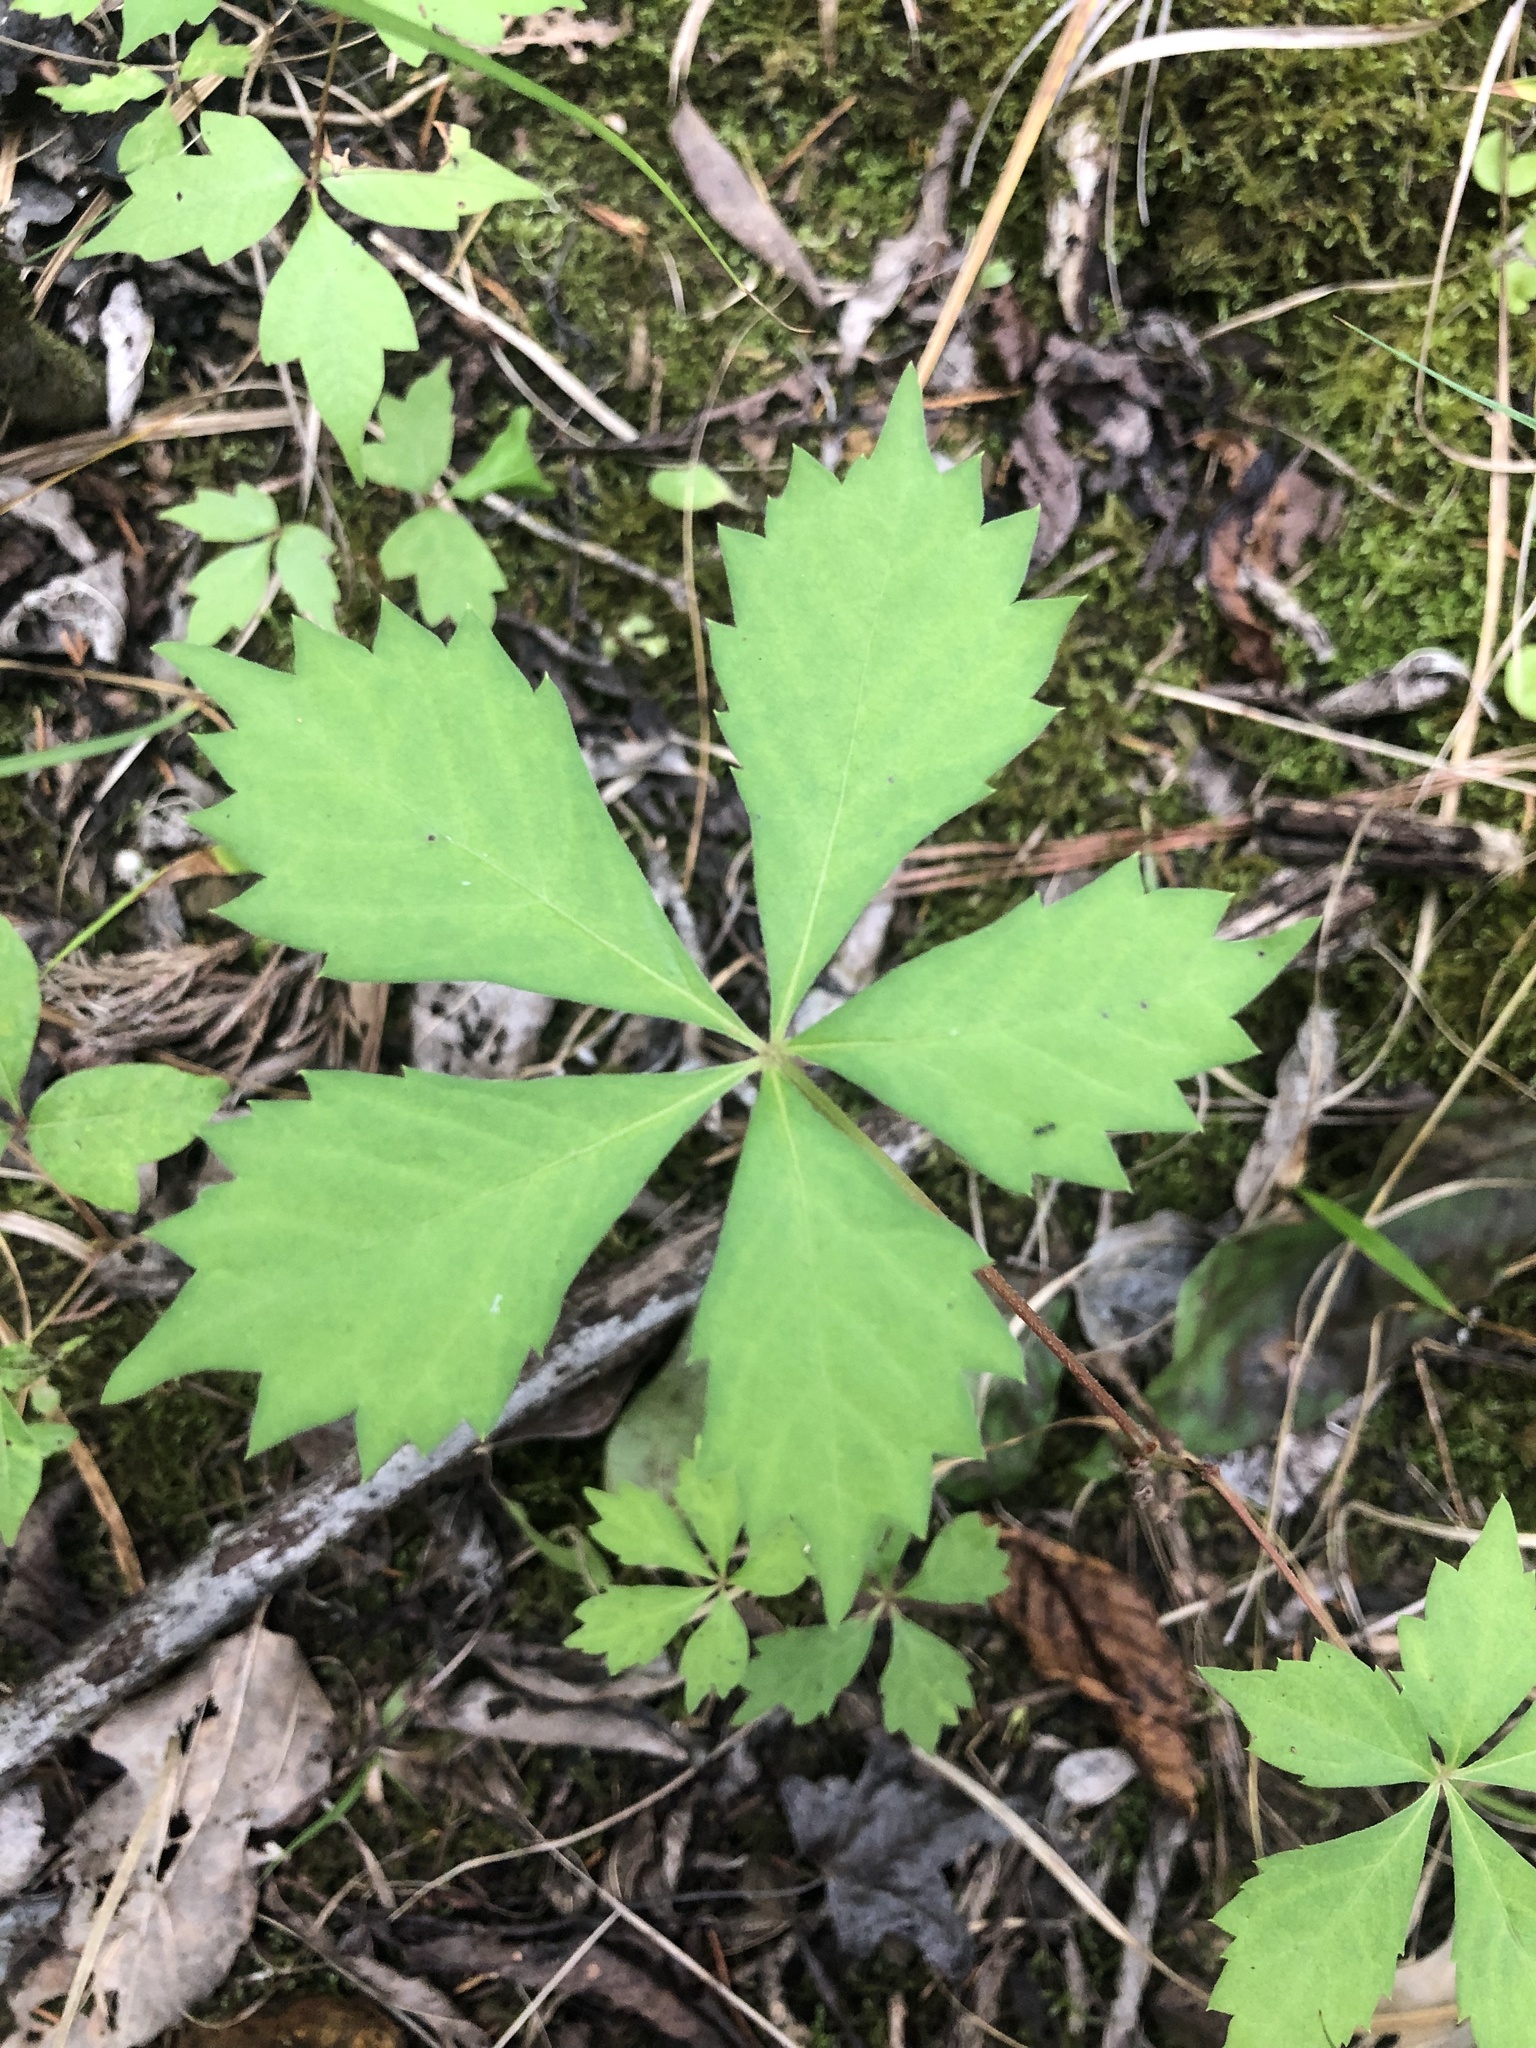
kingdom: Plantae
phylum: Tracheophyta
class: Magnoliopsida
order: Vitales
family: Vitaceae
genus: Parthenocissus
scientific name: Parthenocissus quinquefolia
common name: Virginia-creeper
